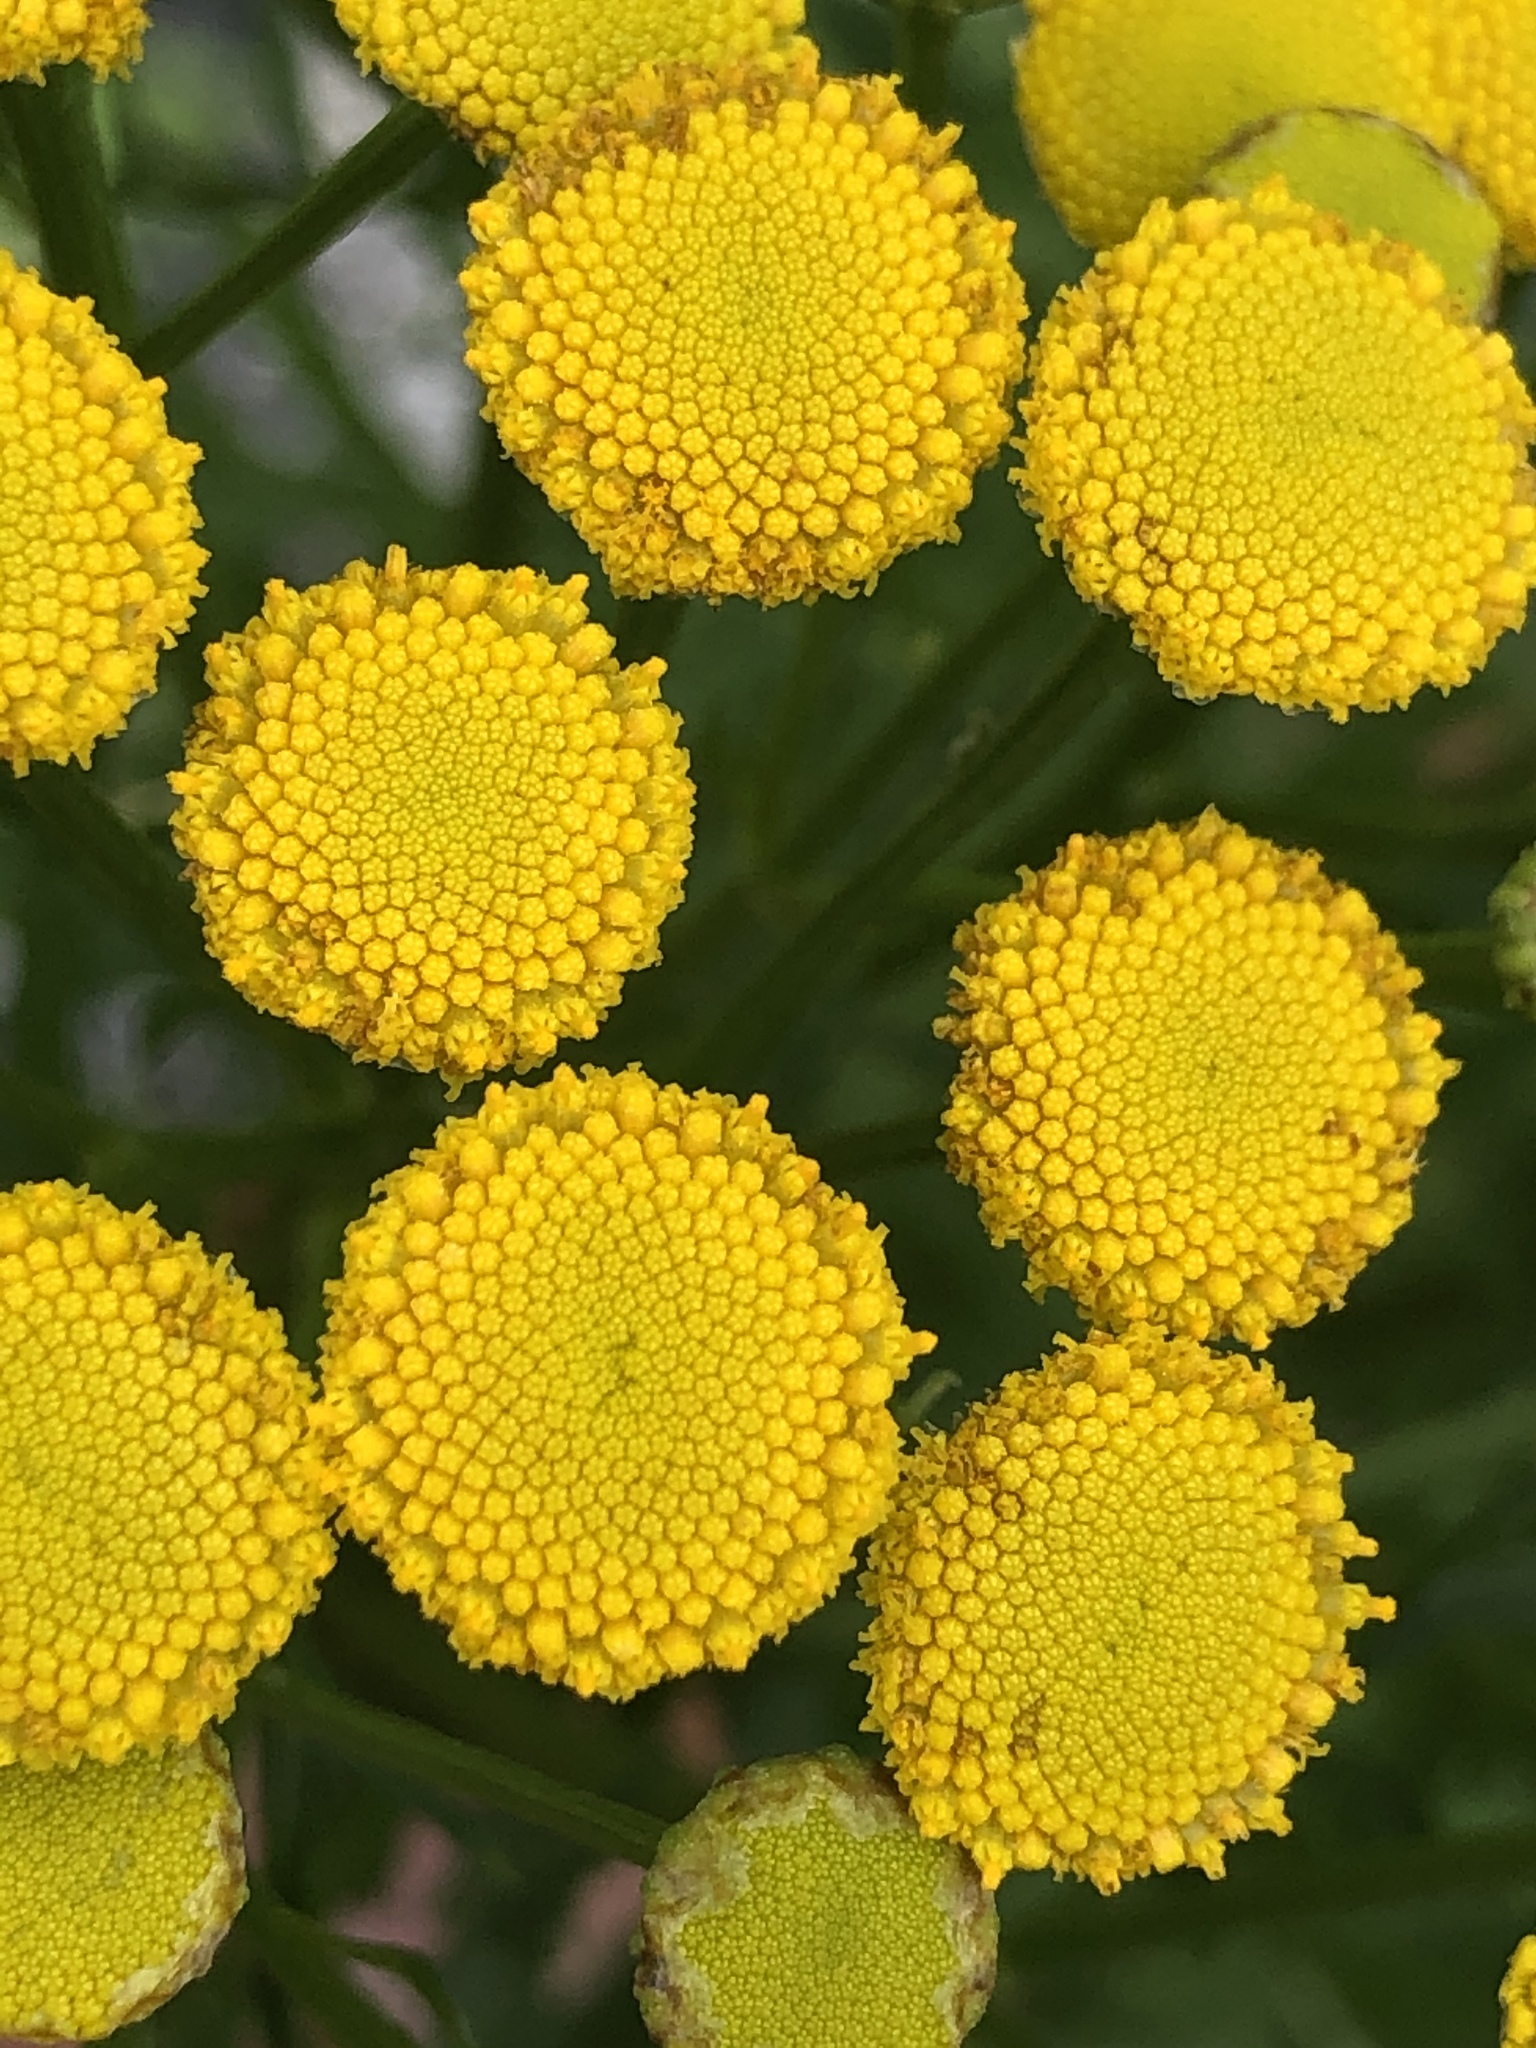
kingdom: Plantae
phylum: Tracheophyta
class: Magnoliopsida
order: Asterales
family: Asteraceae
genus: Tanacetum
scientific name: Tanacetum vulgare
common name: Common tansy
